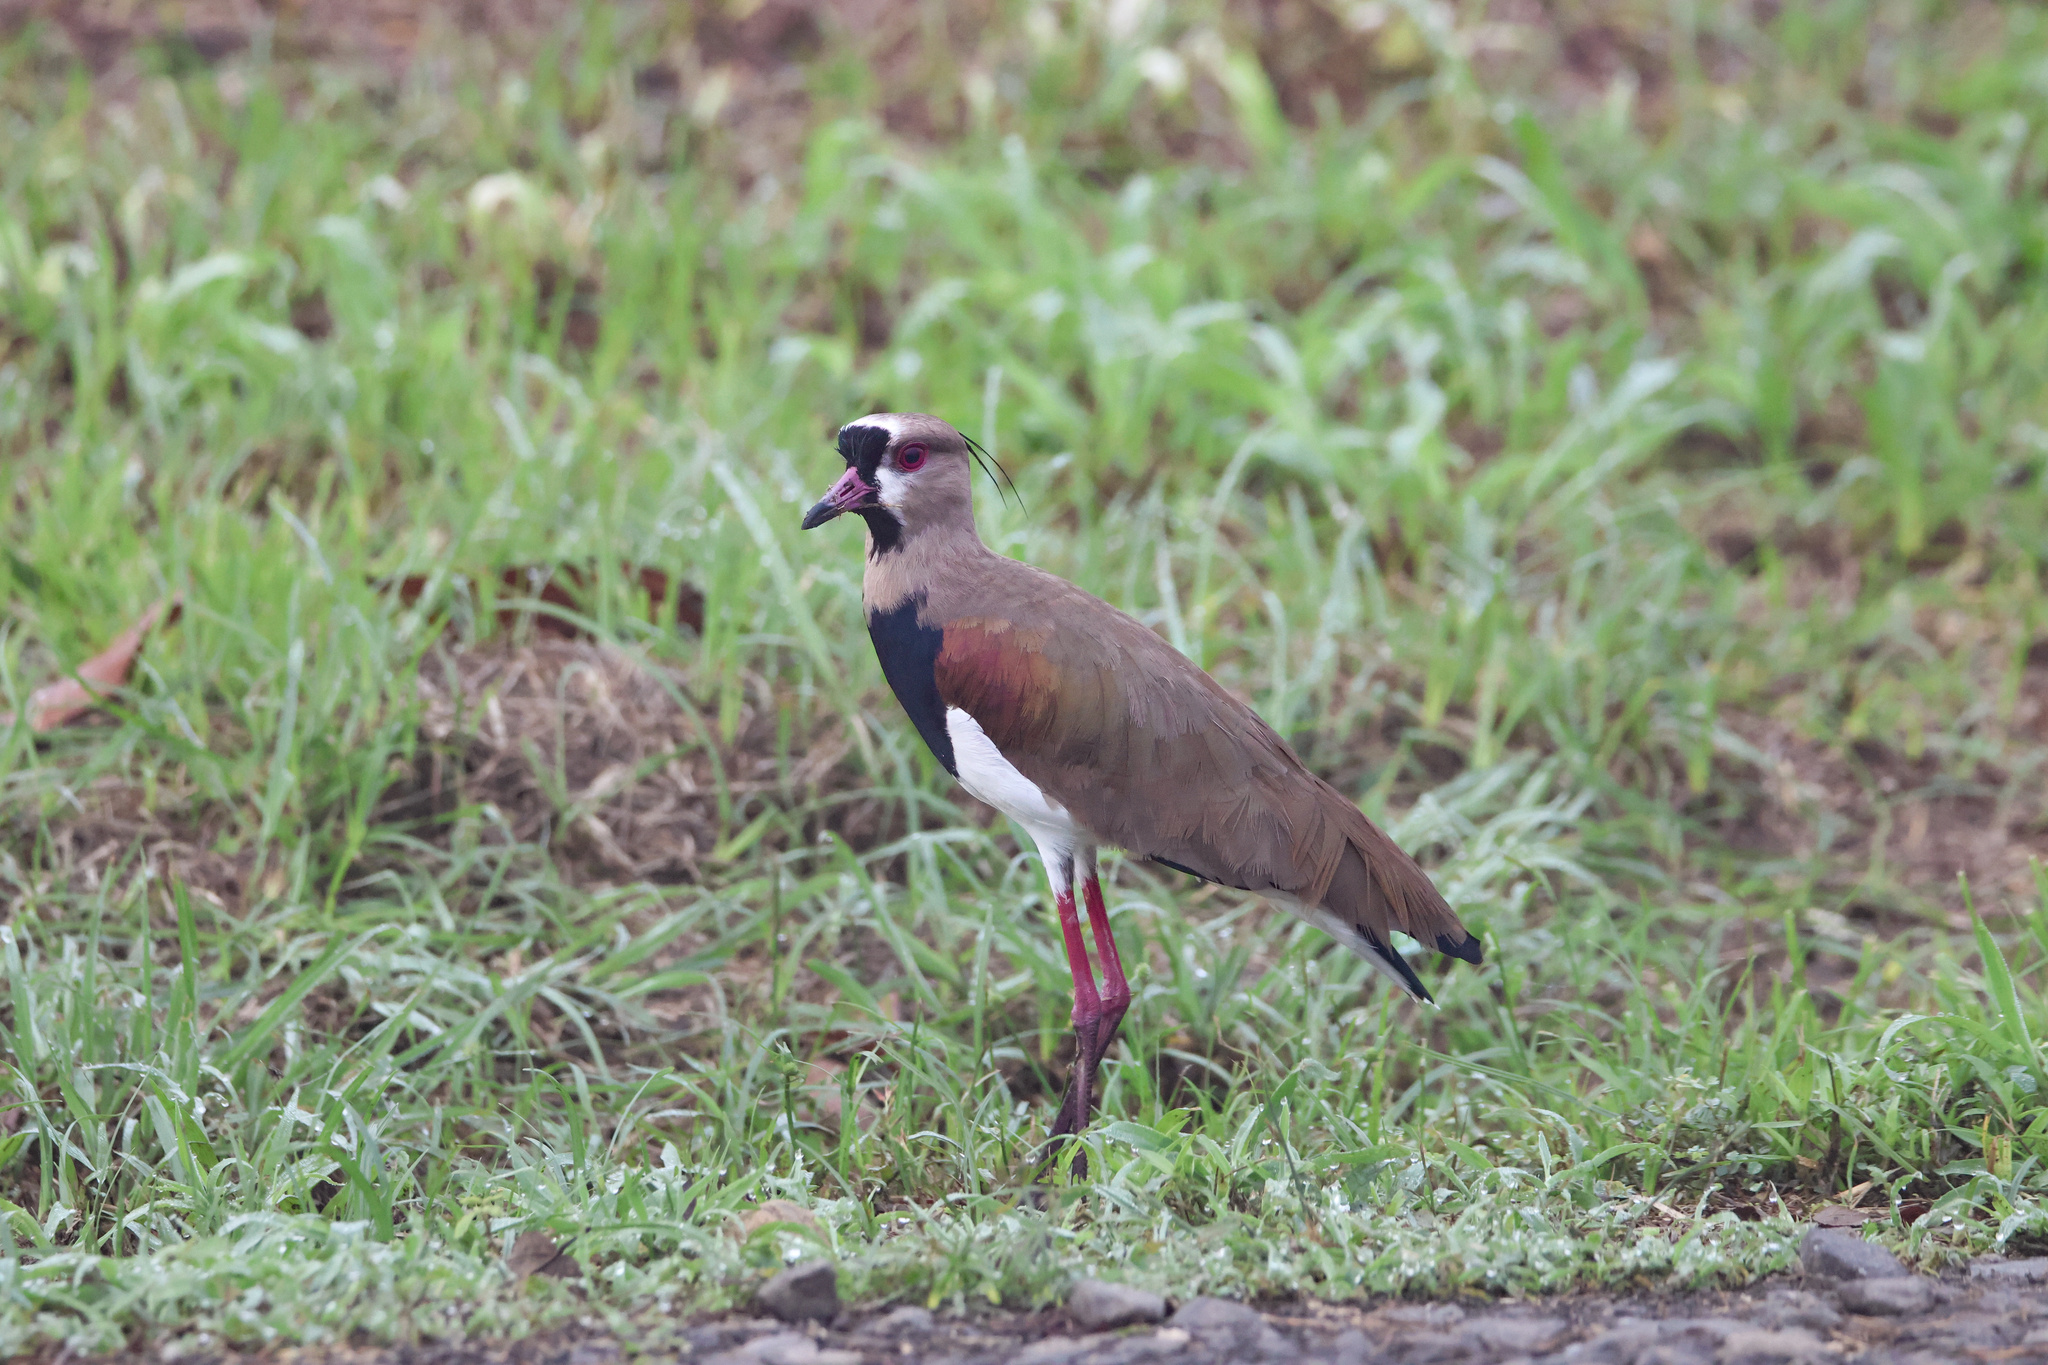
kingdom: Animalia
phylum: Chordata
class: Aves
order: Charadriiformes
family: Charadriidae
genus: Vanellus
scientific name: Vanellus chilensis
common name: Southern lapwing
